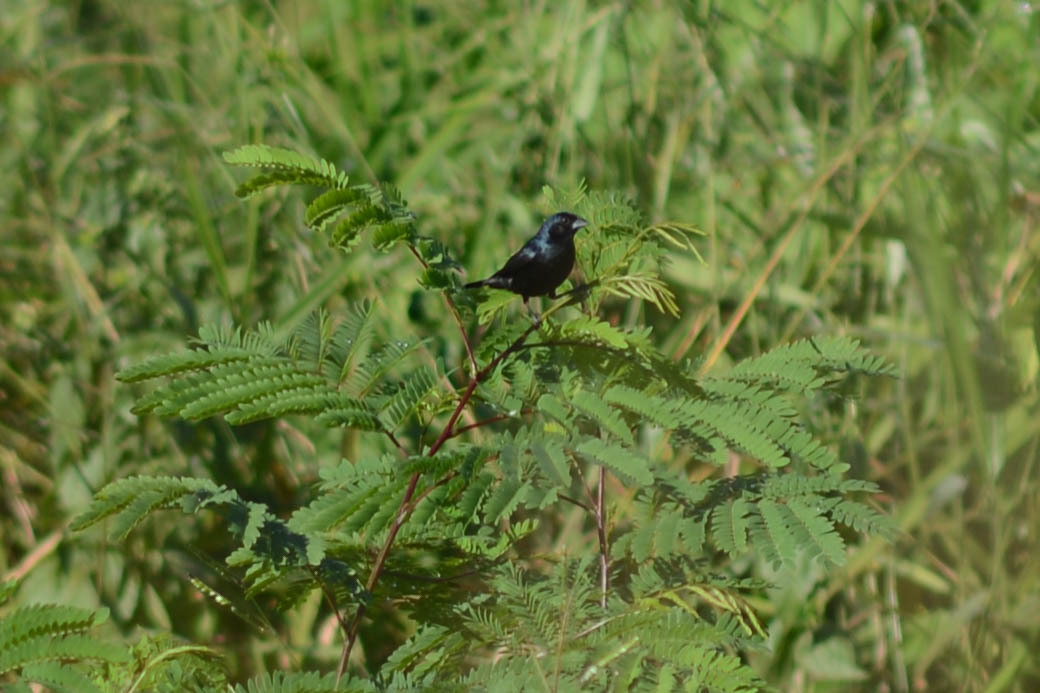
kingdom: Animalia
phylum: Chordata
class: Aves
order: Passeriformes
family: Thraupidae
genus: Volatinia
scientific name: Volatinia jacarina
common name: Blue-black grassquit
